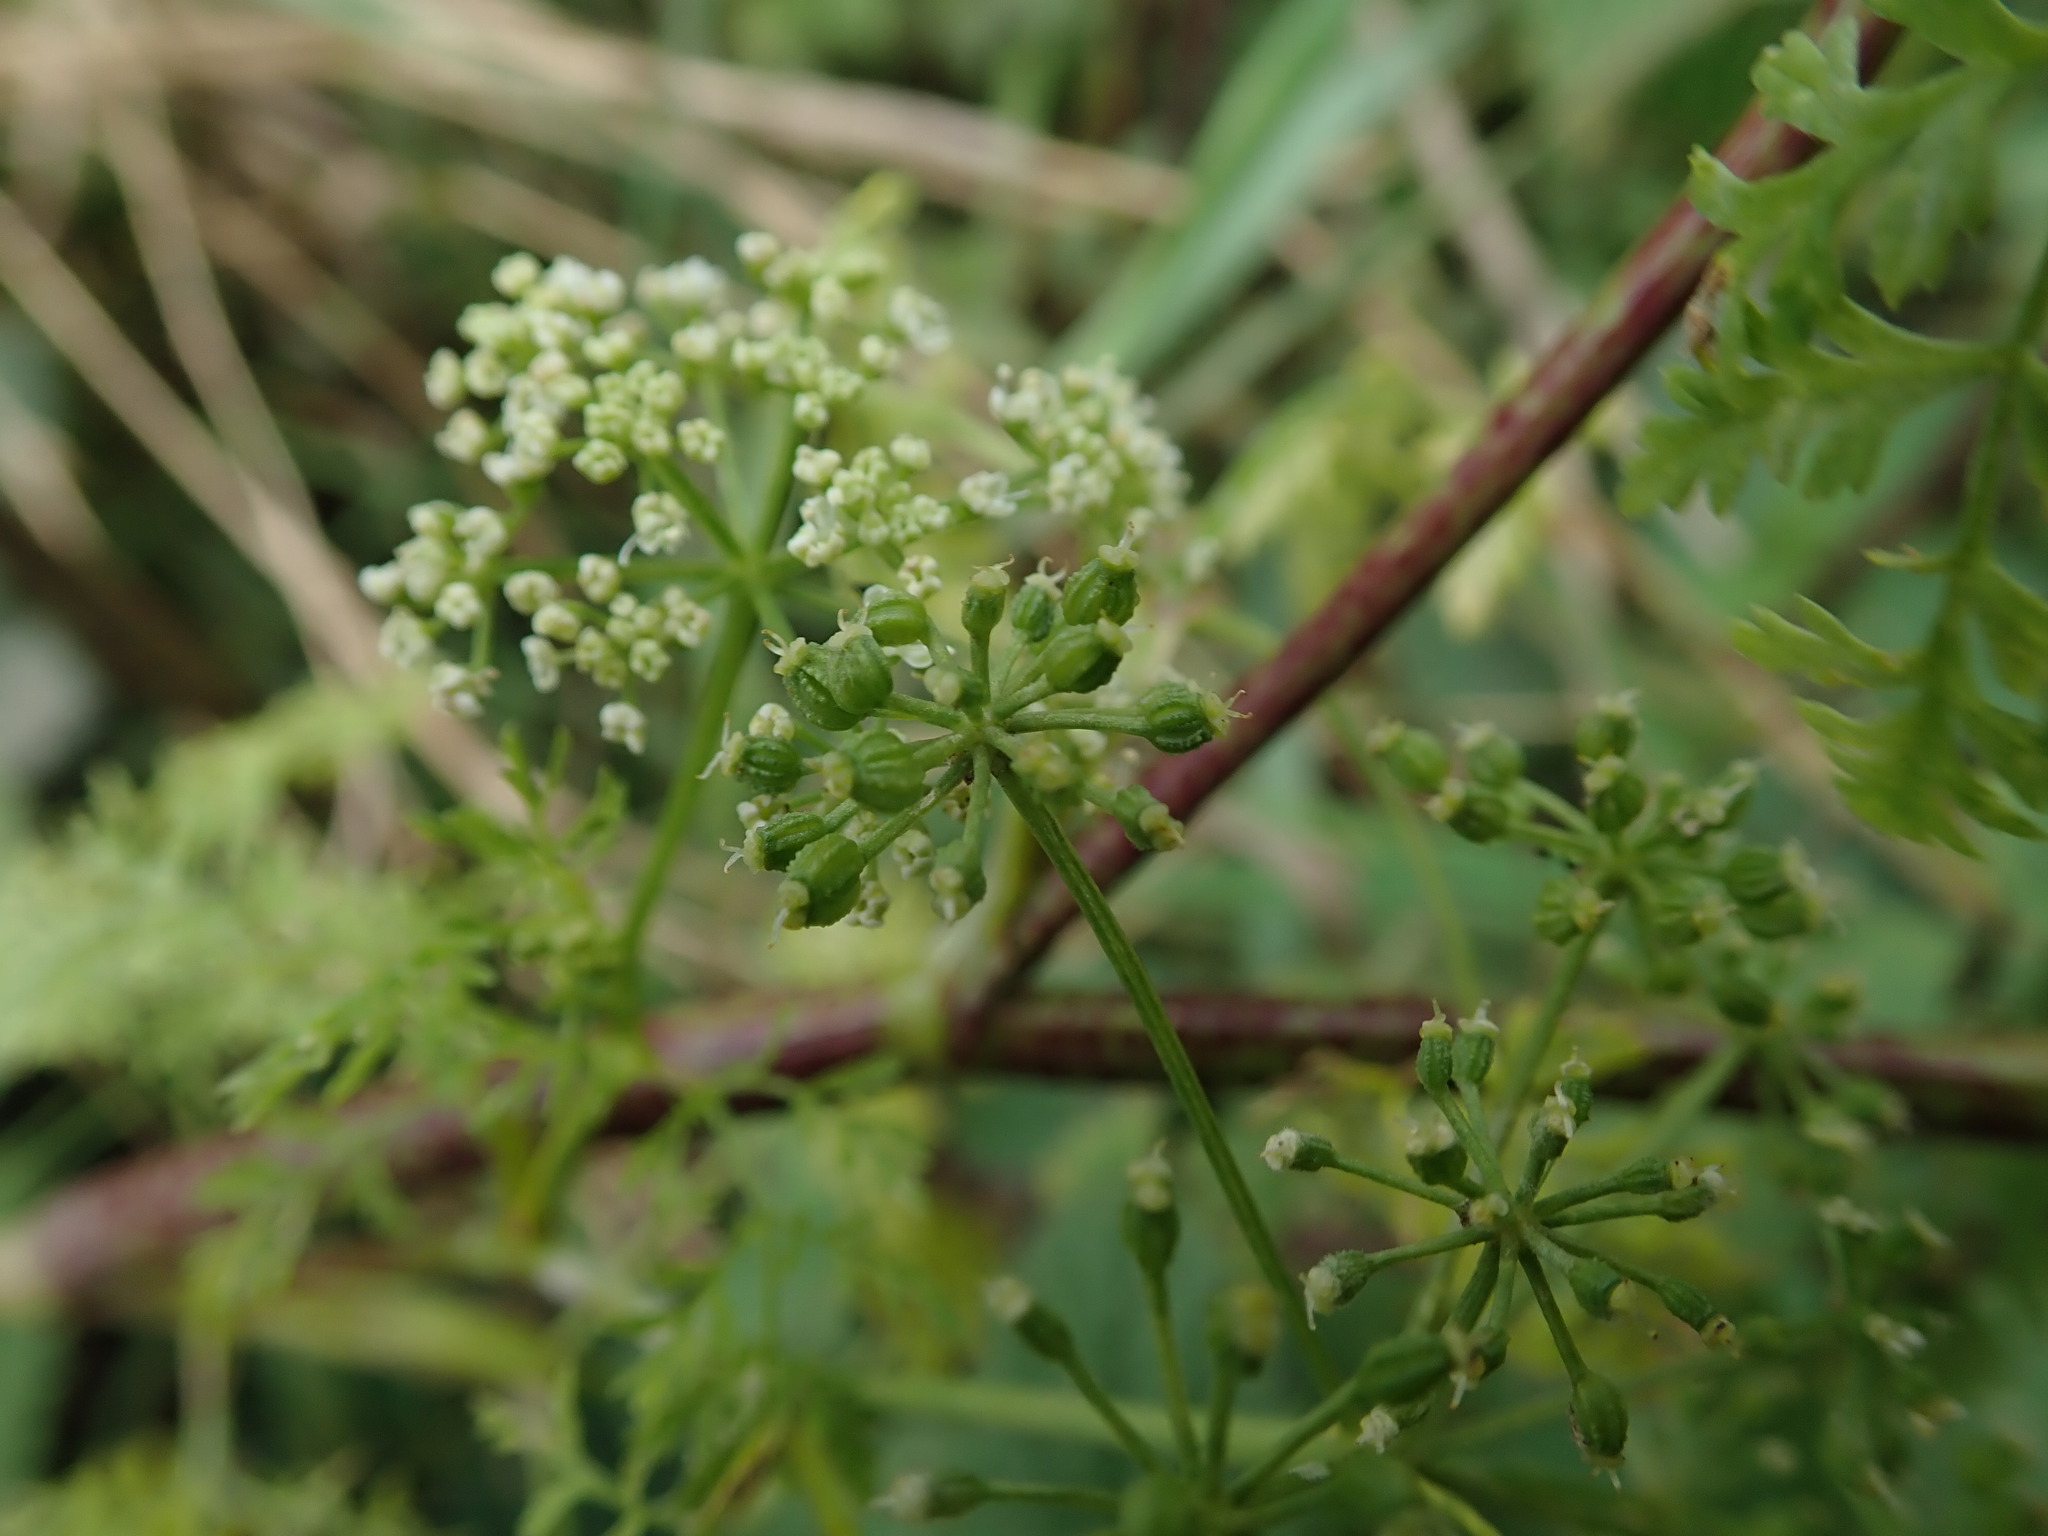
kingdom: Plantae
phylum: Tracheophyta
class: Magnoliopsida
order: Apiales
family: Apiaceae
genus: Conium
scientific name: Conium maculatum
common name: Hemlock
